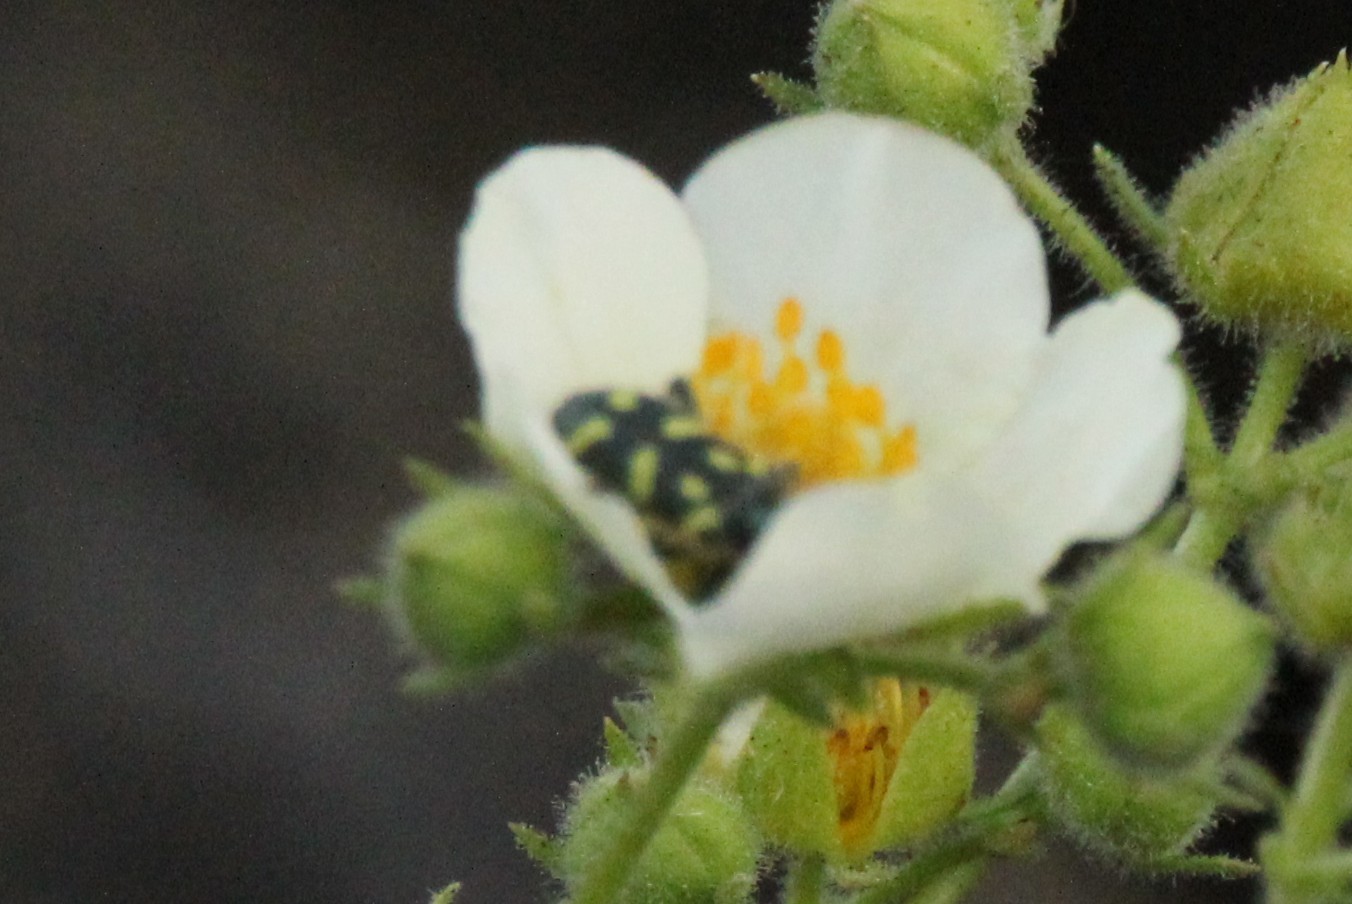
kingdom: Animalia
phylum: Arthropoda
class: Insecta
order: Coleoptera
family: Cleridae
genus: Trichodes
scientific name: Trichodes ornatus
